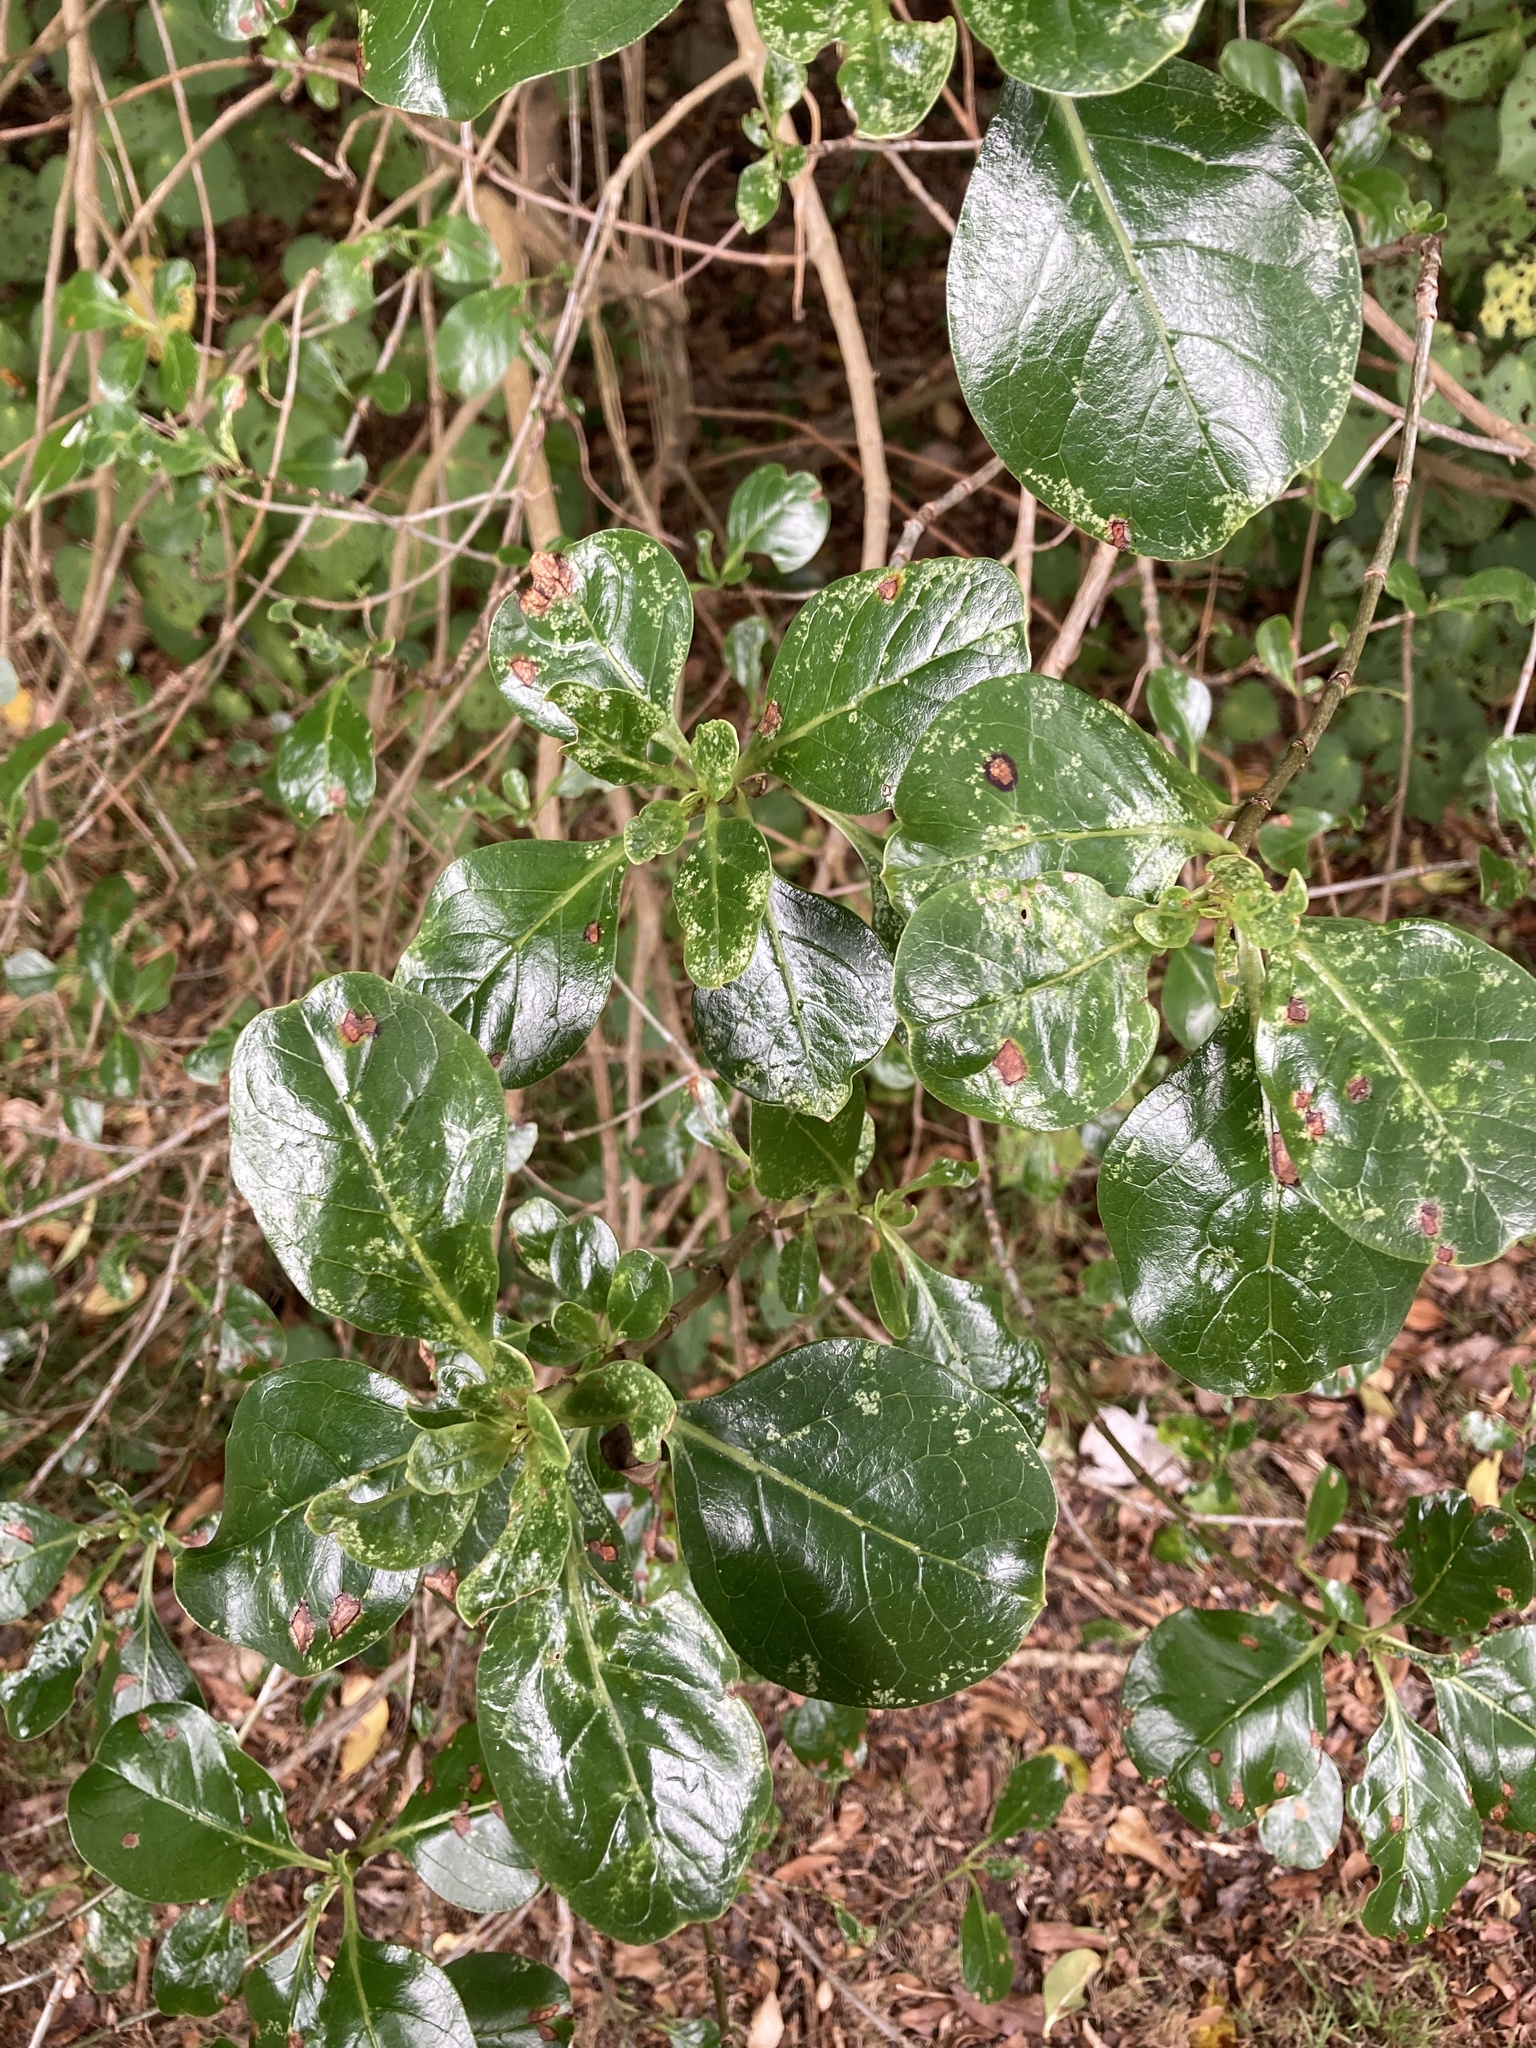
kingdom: Plantae
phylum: Tracheophyta
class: Magnoliopsida
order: Gentianales
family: Rubiaceae
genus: Coprosma
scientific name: Coprosma repens
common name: Tree bedstraw
